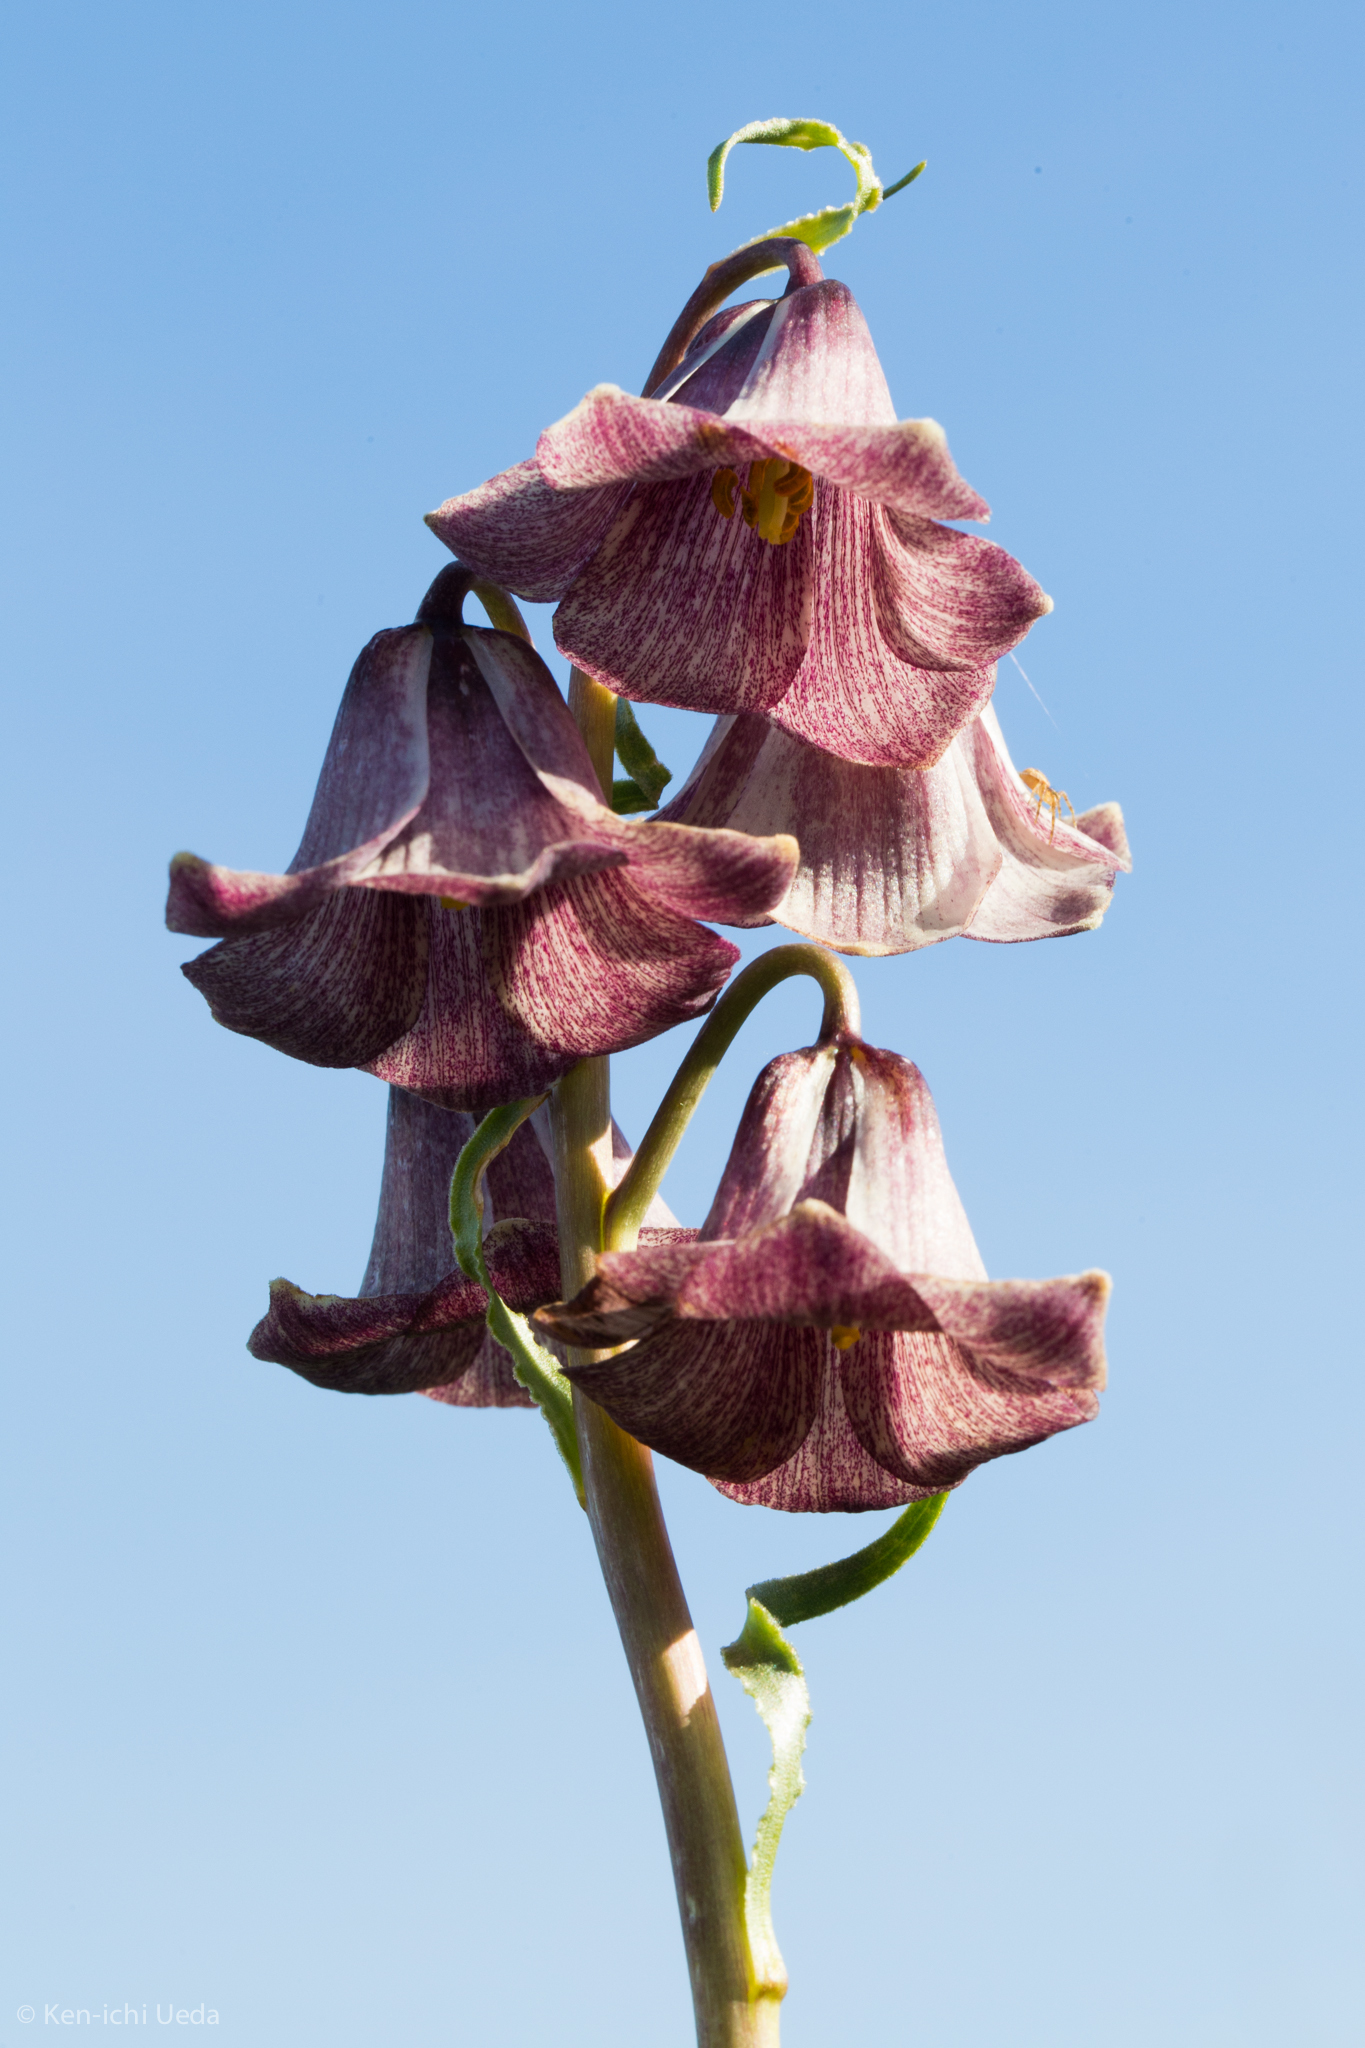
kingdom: Plantae
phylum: Tracheophyta
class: Liliopsida
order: Liliales
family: Liliaceae
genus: Fritillaria
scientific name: Fritillaria striata
